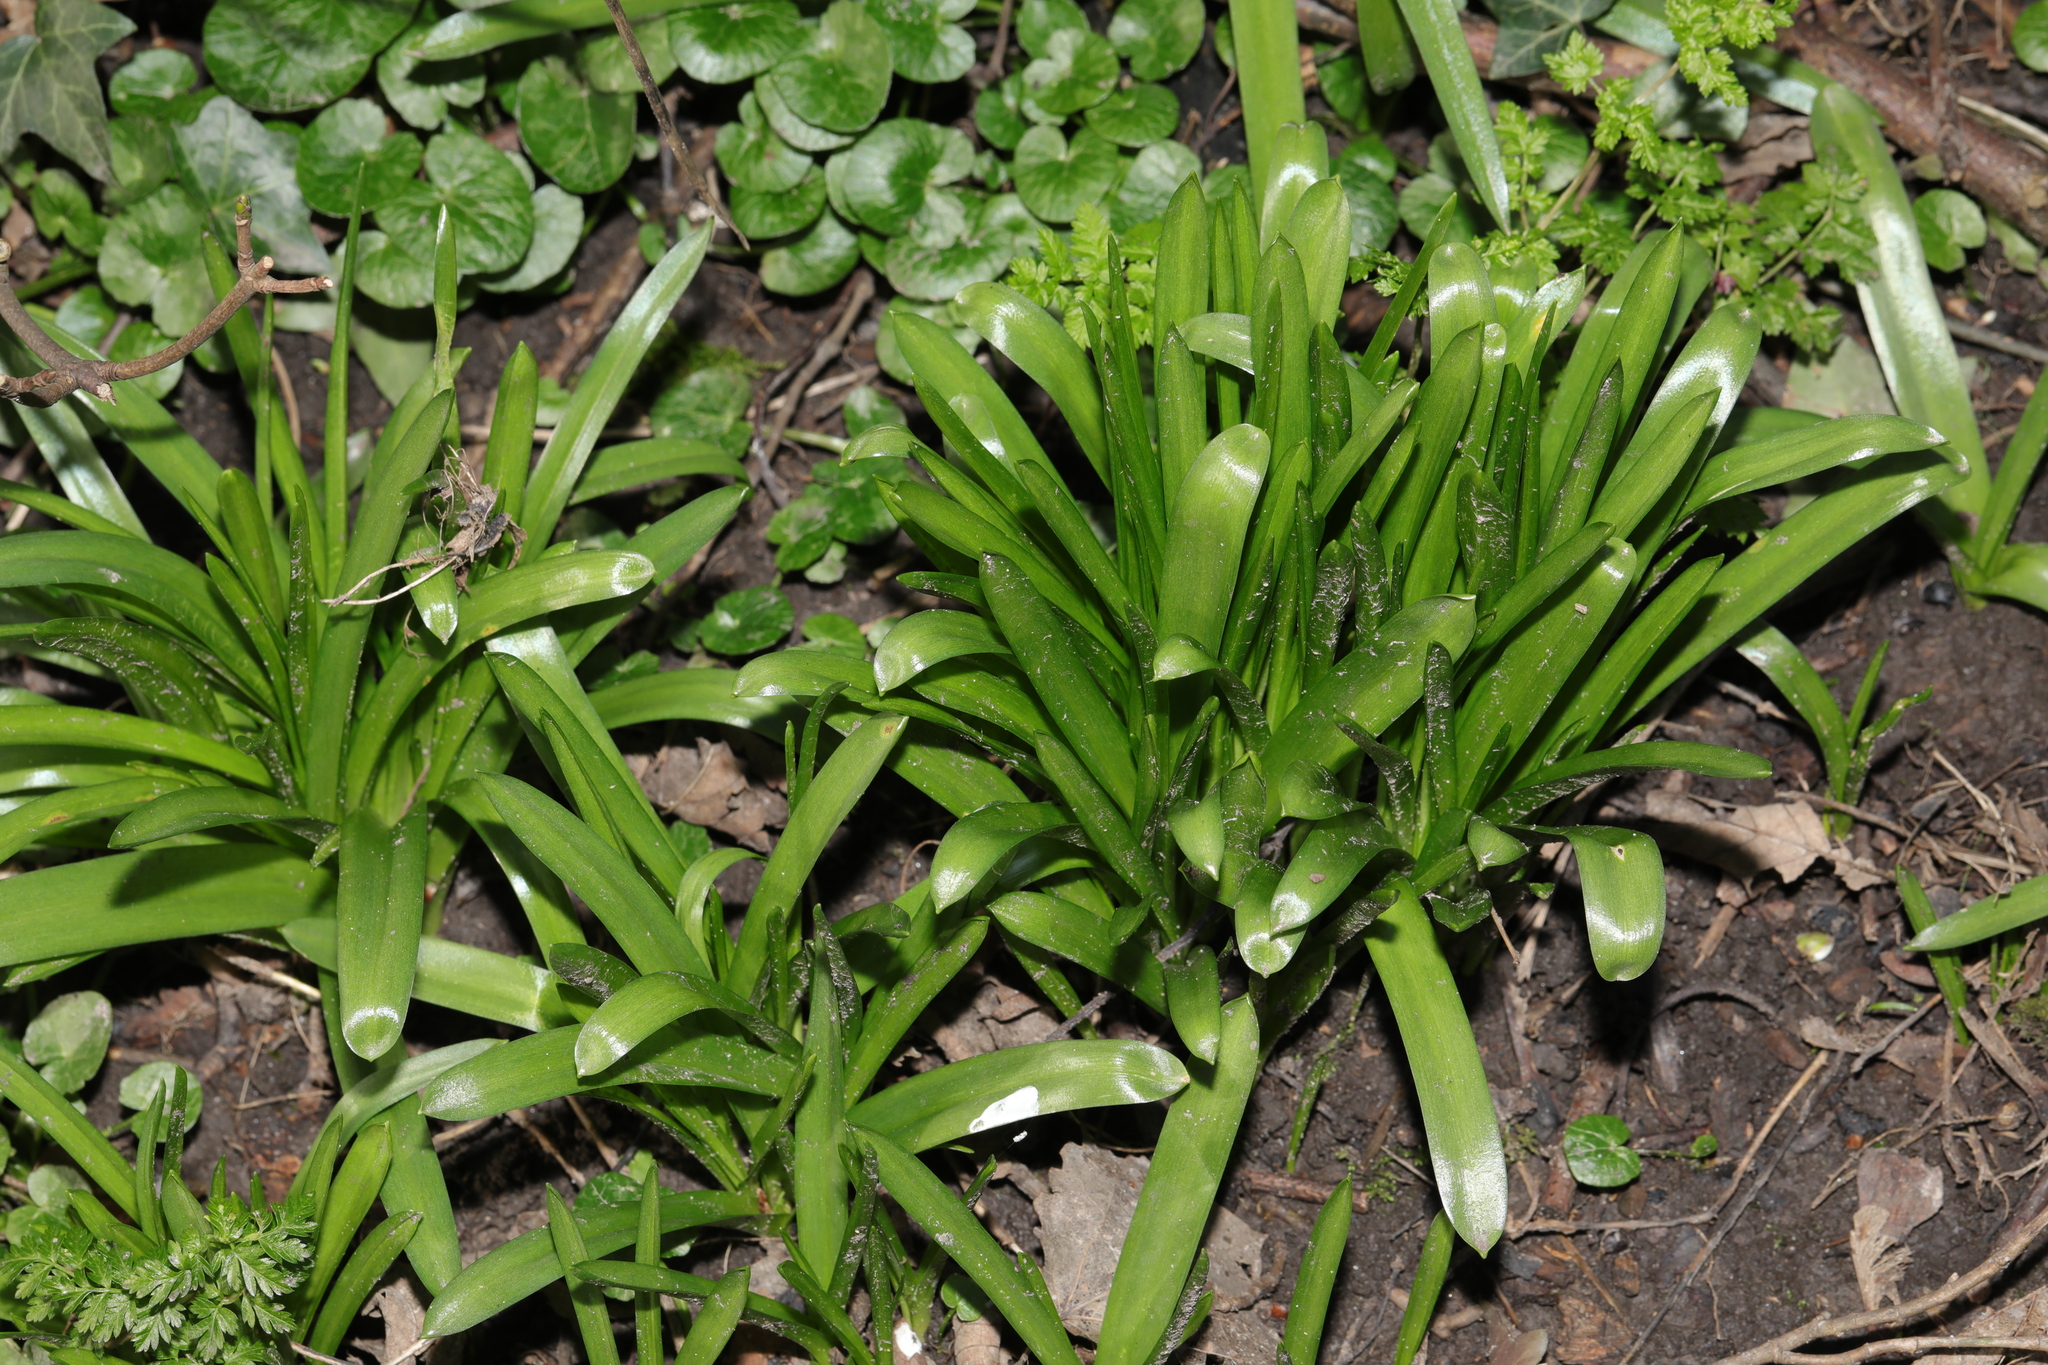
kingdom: Plantae
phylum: Tracheophyta
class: Liliopsida
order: Asparagales
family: Asparagaceae
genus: Hyacinthoides
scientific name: Hyacinthoides massartiana
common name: Hyacinthoides
